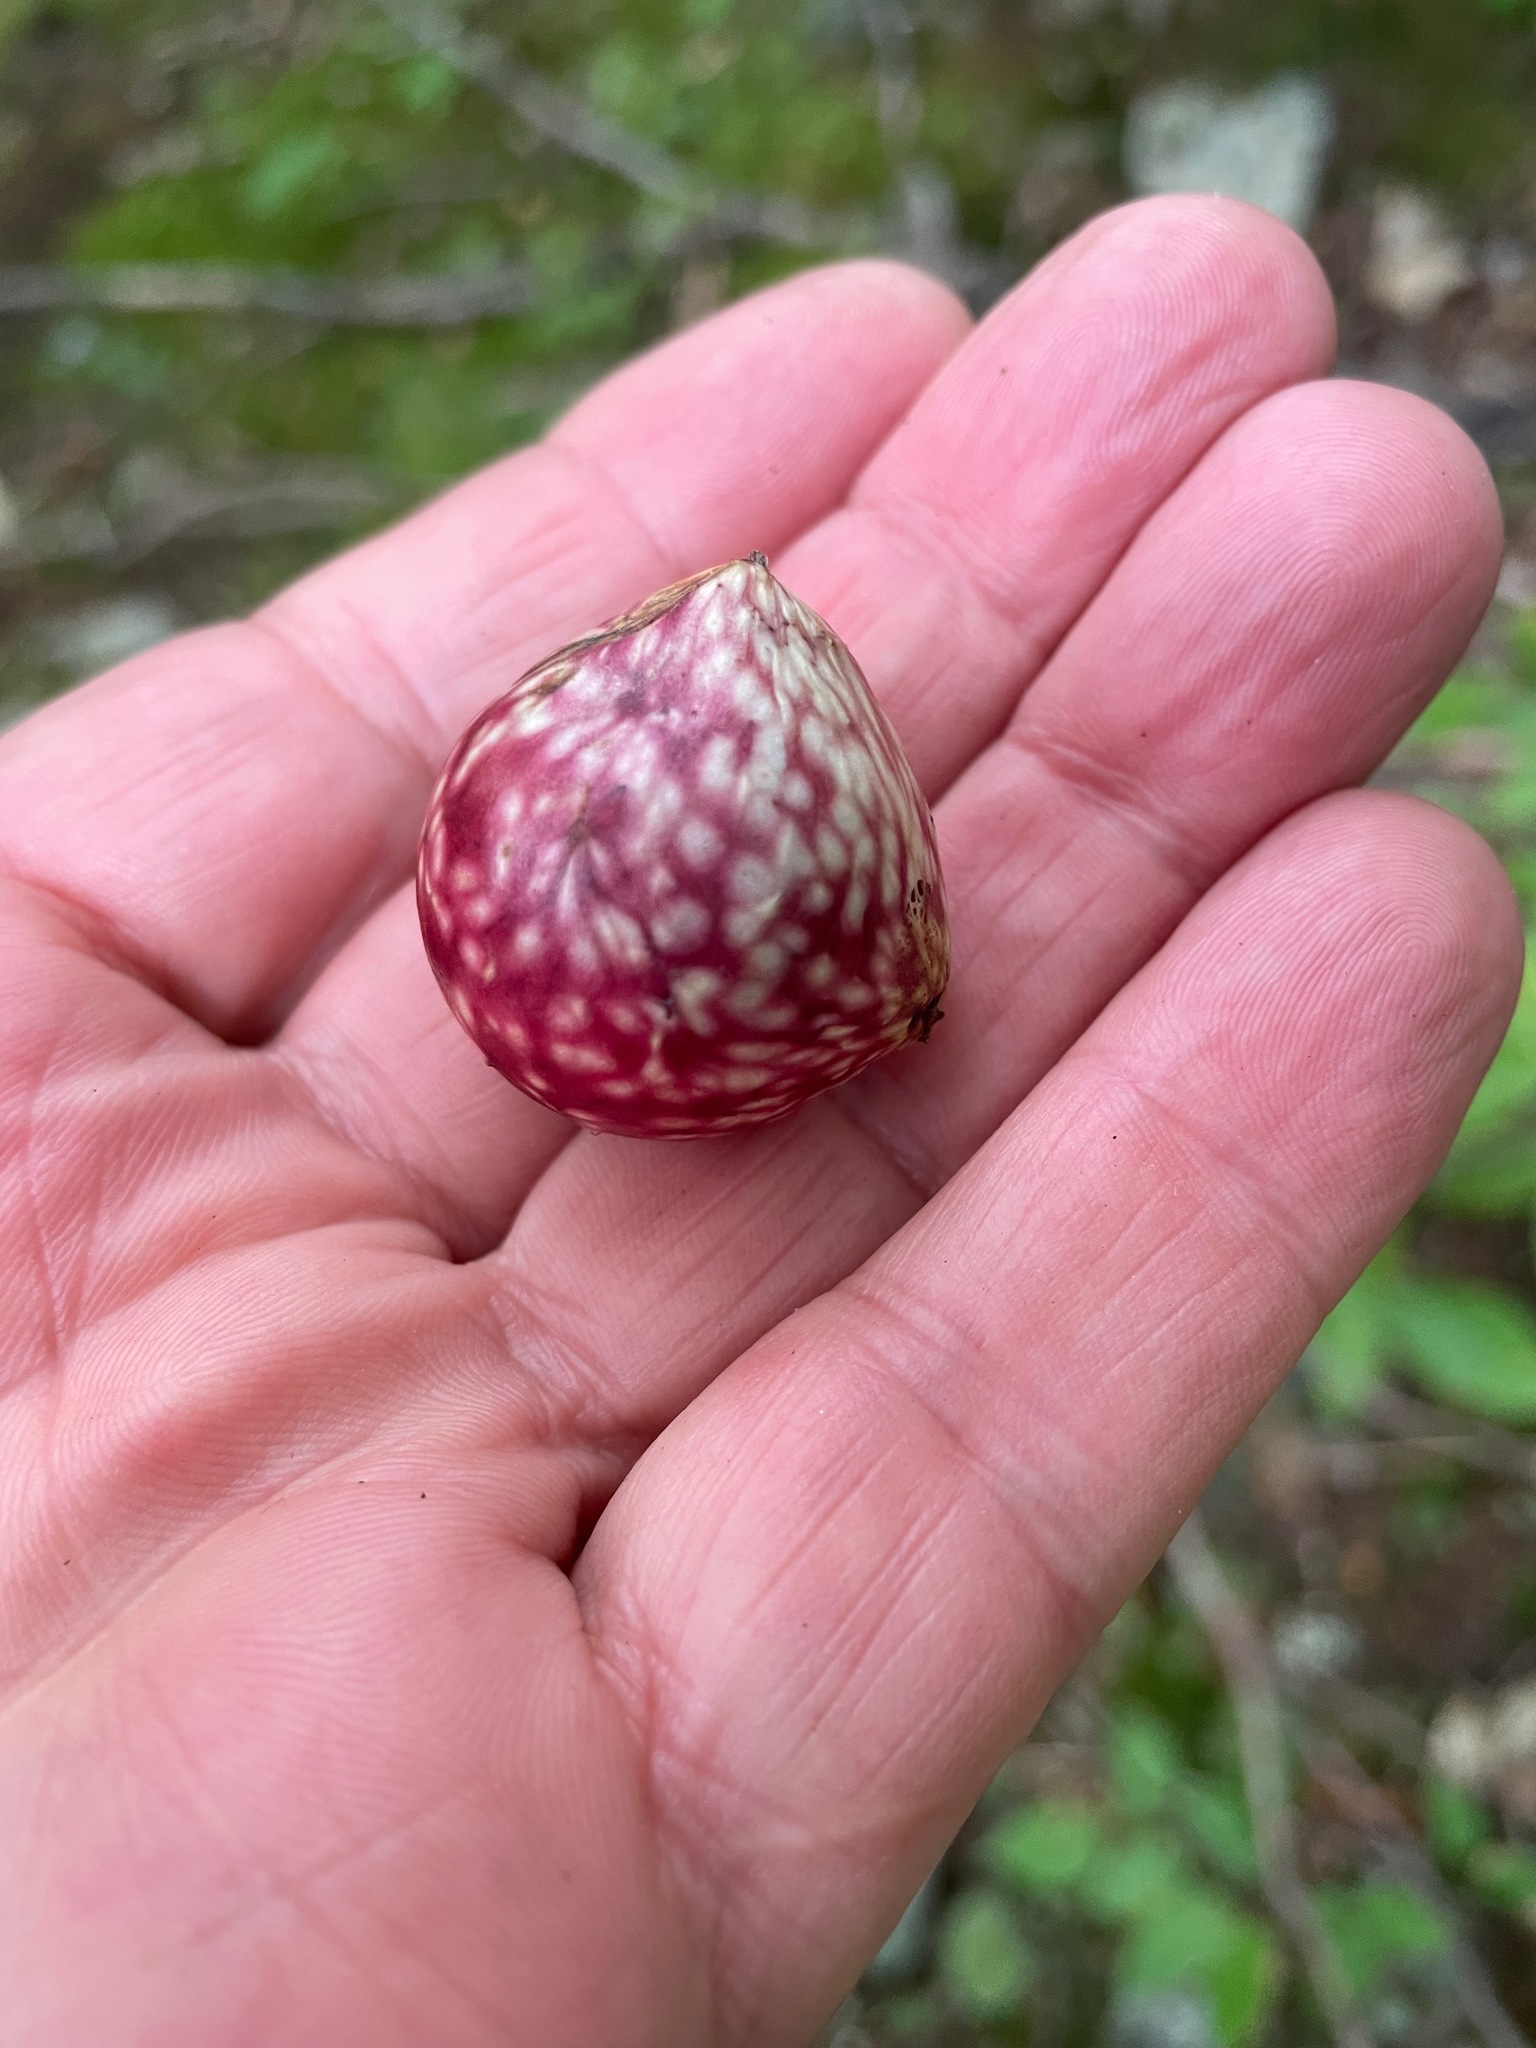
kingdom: Animalia
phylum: Arthropoda
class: Insecta
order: Hymenoptera
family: Cynipidae
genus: Amphibolips
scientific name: Amphibolips
